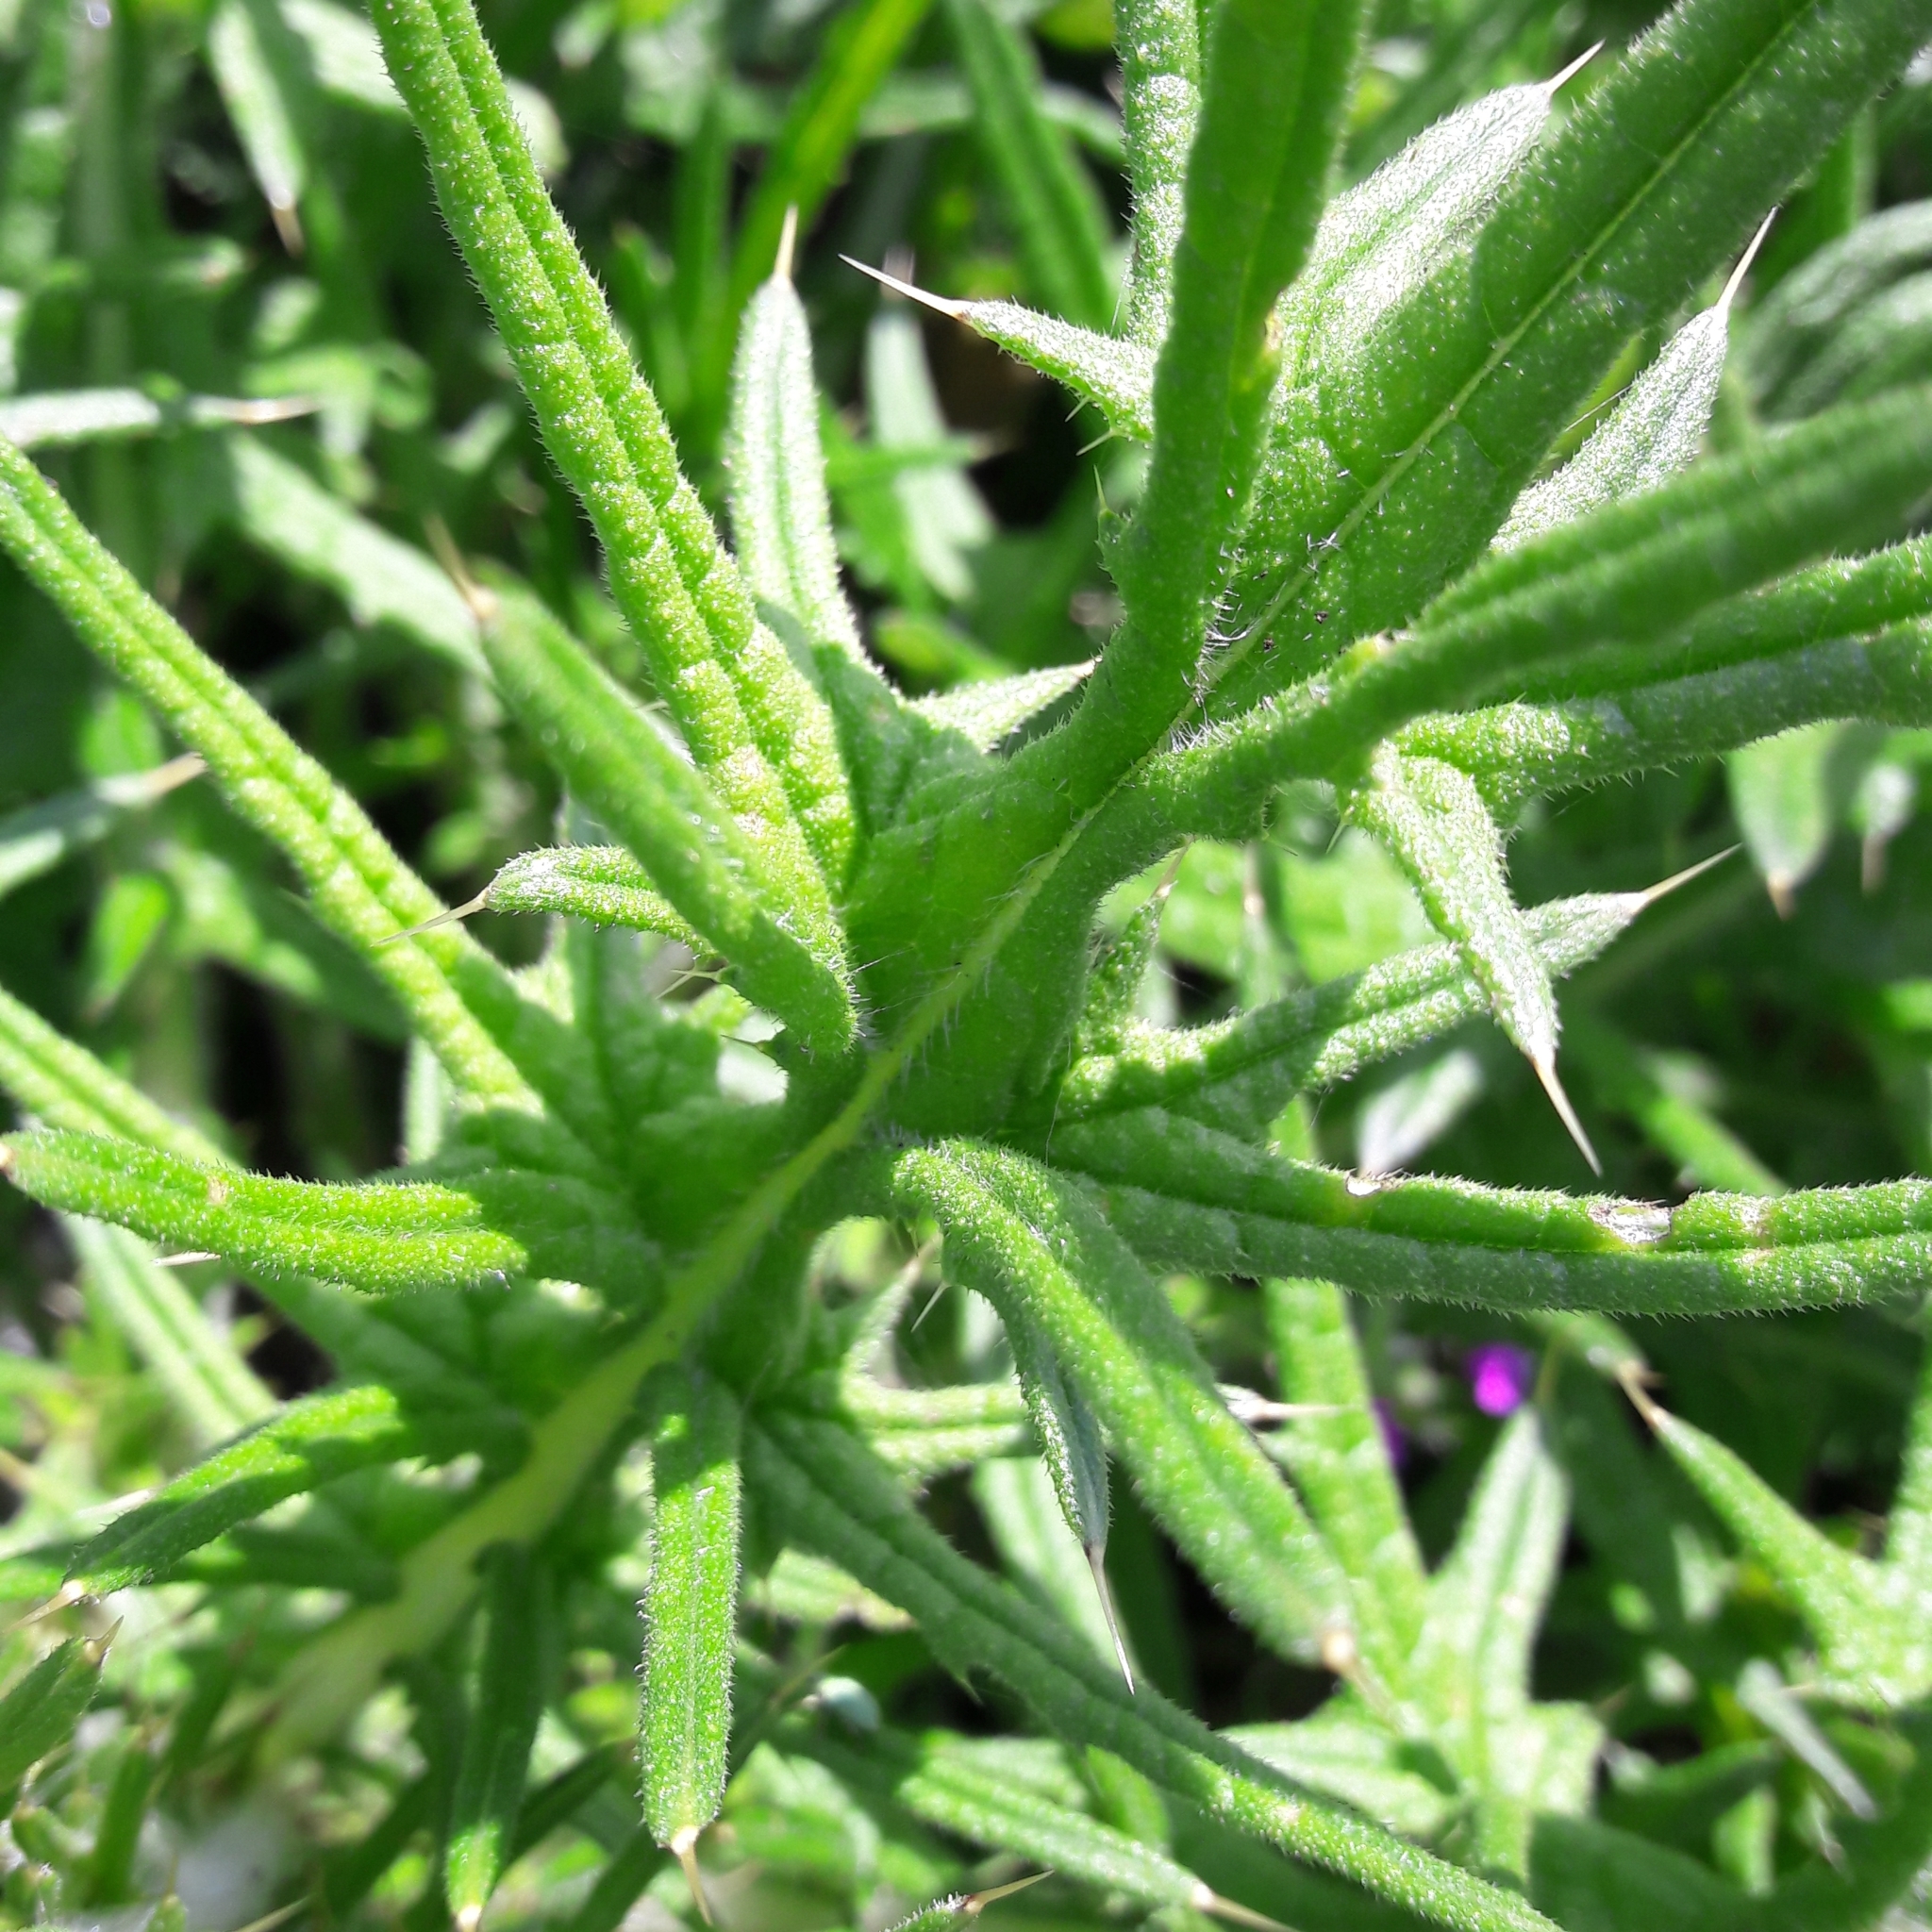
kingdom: Plantae
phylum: Tracheophyta
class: Magnoliopsida
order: Asterales
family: Asteraceae
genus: Cirsium
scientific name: Cirsium vulgare
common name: Bull thistle
